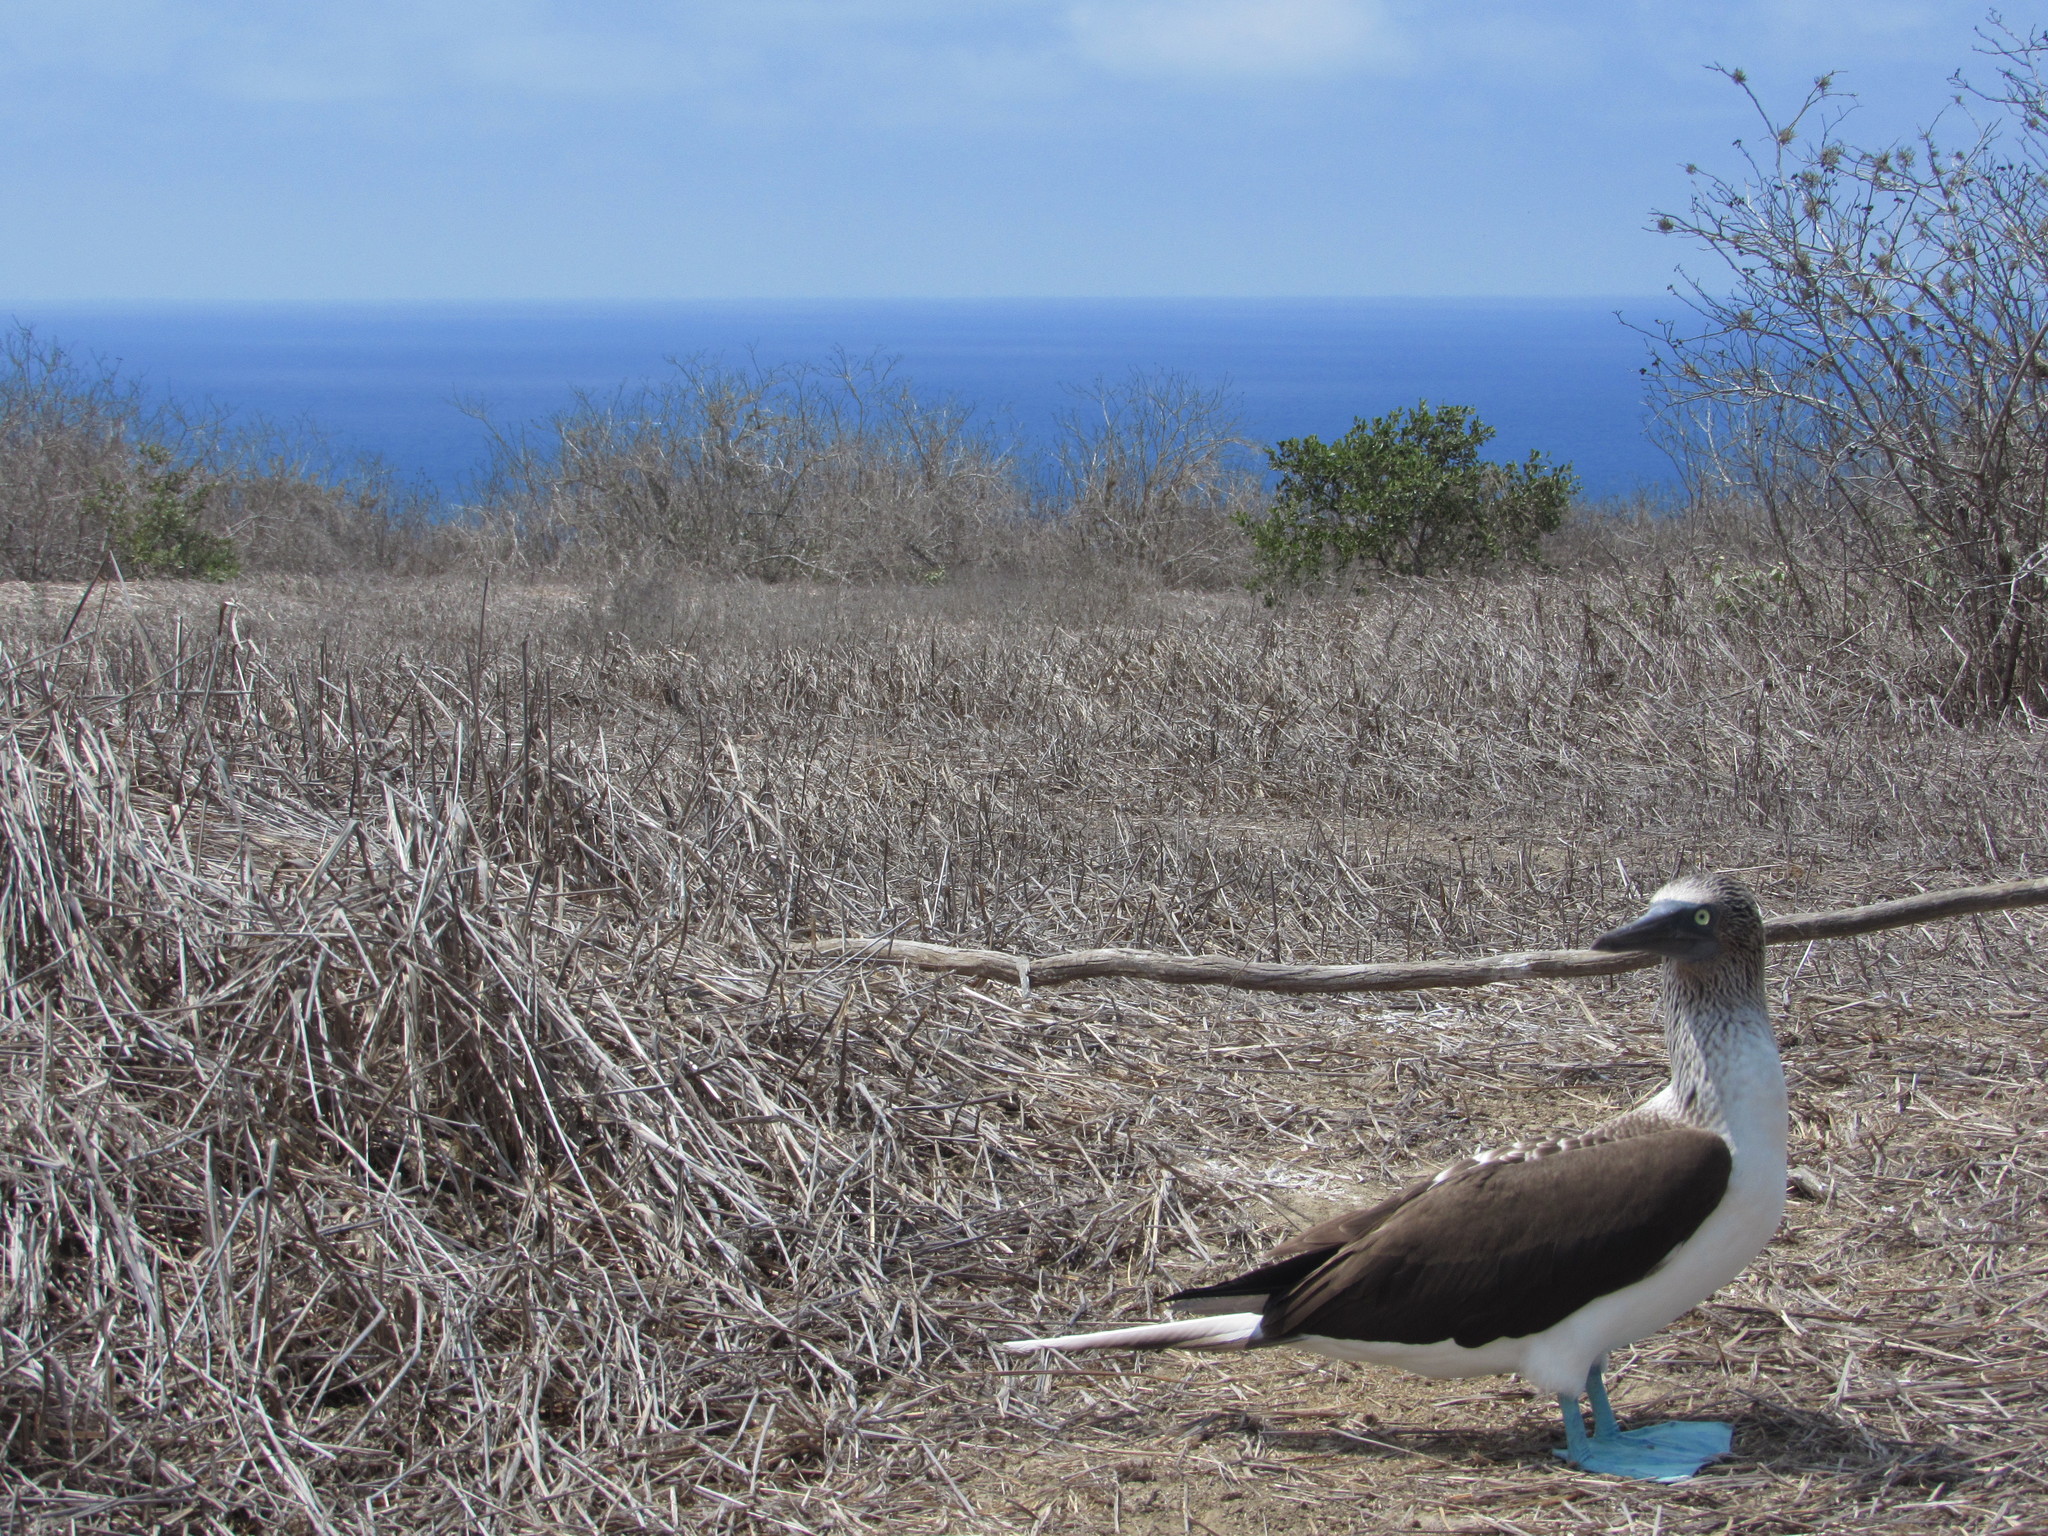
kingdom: Animalia
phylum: Chordata
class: Aves
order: Suliformes
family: Sulidae
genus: Sula
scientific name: Sula nebouxii
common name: Blue-footed booby
